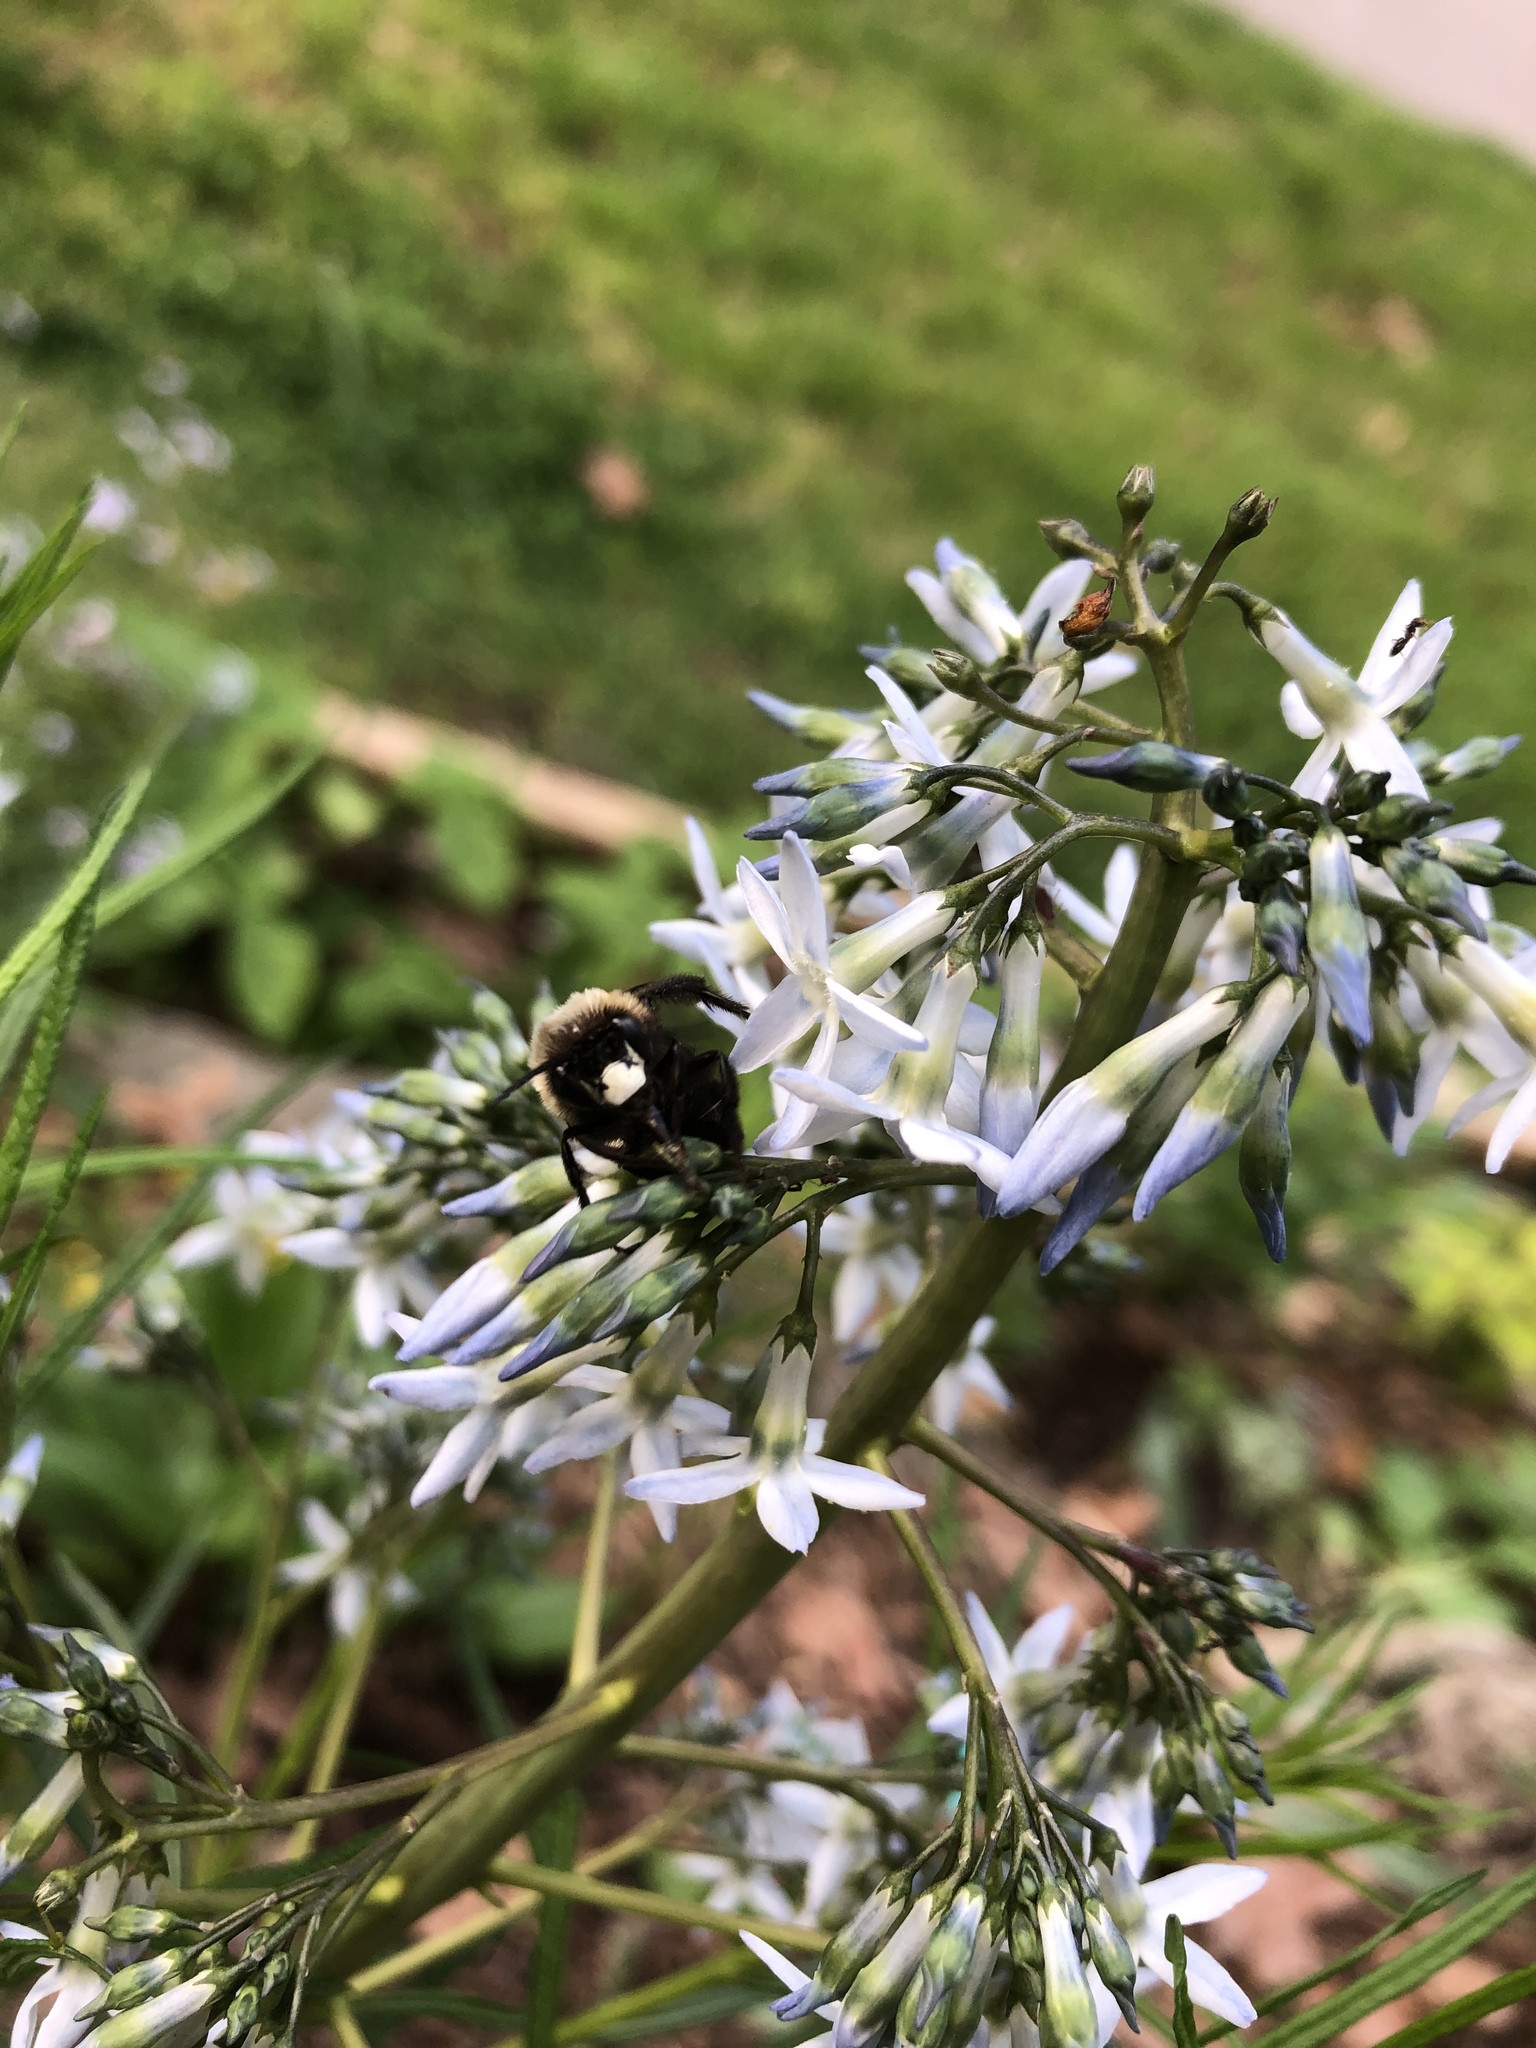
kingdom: Animalia
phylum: Arthropoda
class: Insecta
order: Hymenoptera
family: Apidae
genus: Habropoda
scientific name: Habropoda laboriosa
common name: Southeastern blueberry bee
